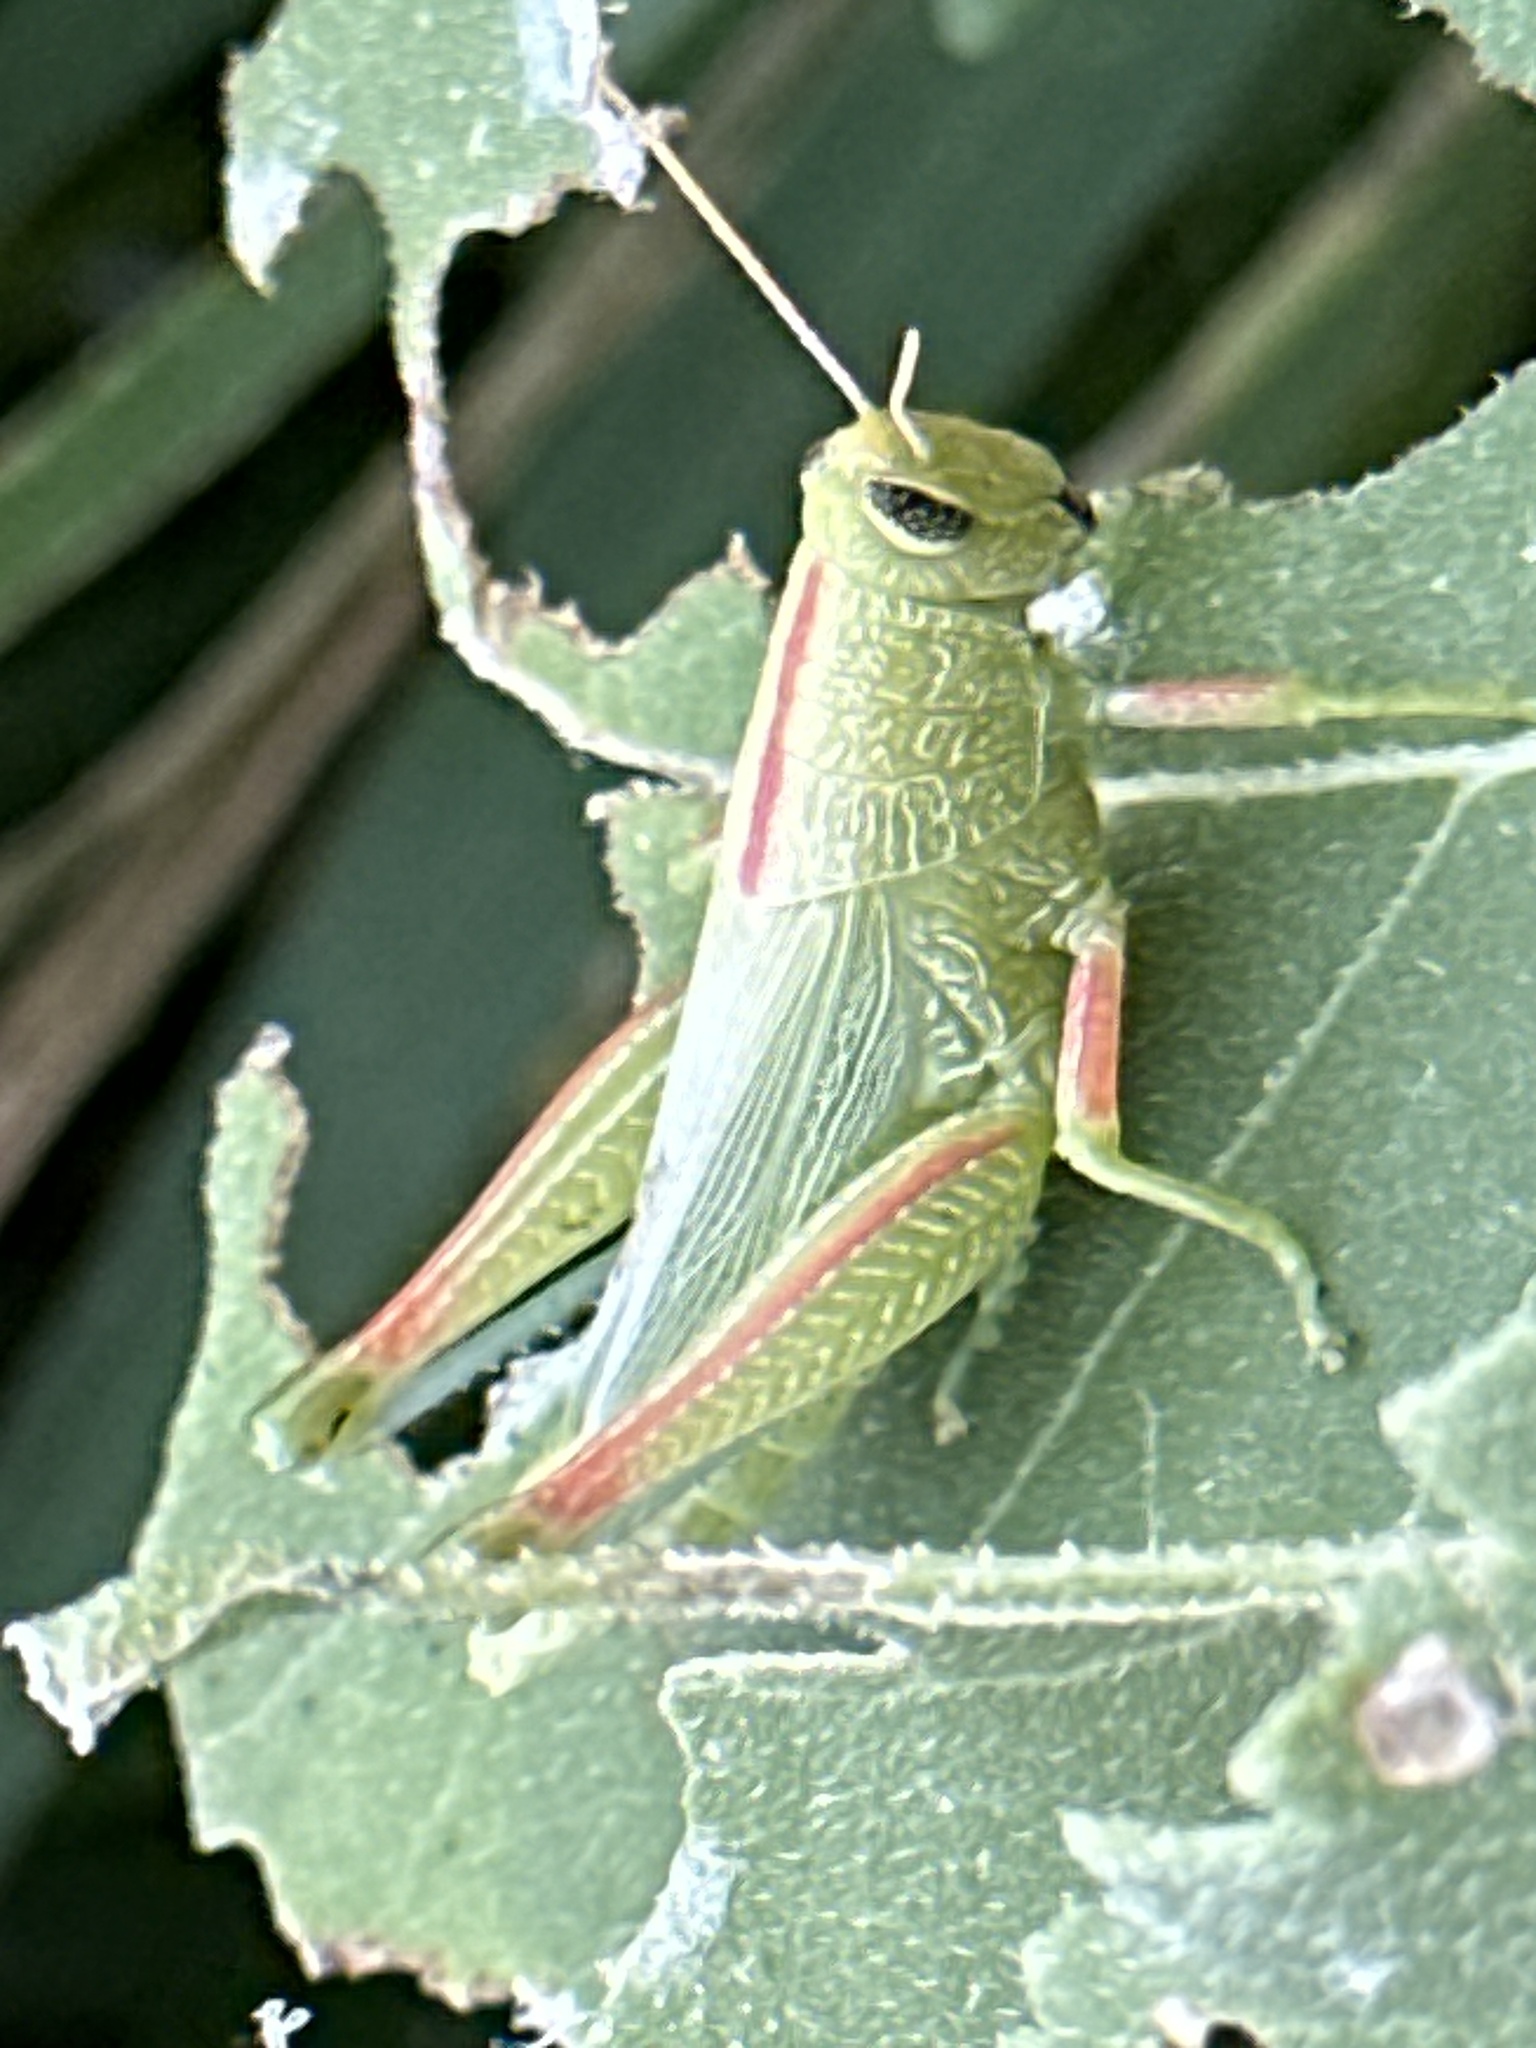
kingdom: Animalia
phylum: Arthropoda
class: Insecta
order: Orthoptera
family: Acrididae
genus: Hesperotettix
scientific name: Hesperotettix speciosus
